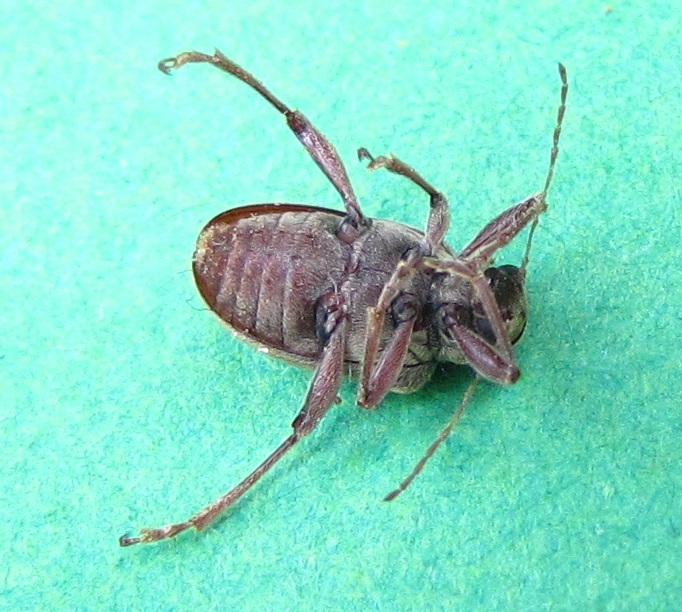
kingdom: Animalia
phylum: Arthropoda
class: Insecta
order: Coleoptera
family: Chrysomelidae
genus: Neofidia
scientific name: Neofidia
